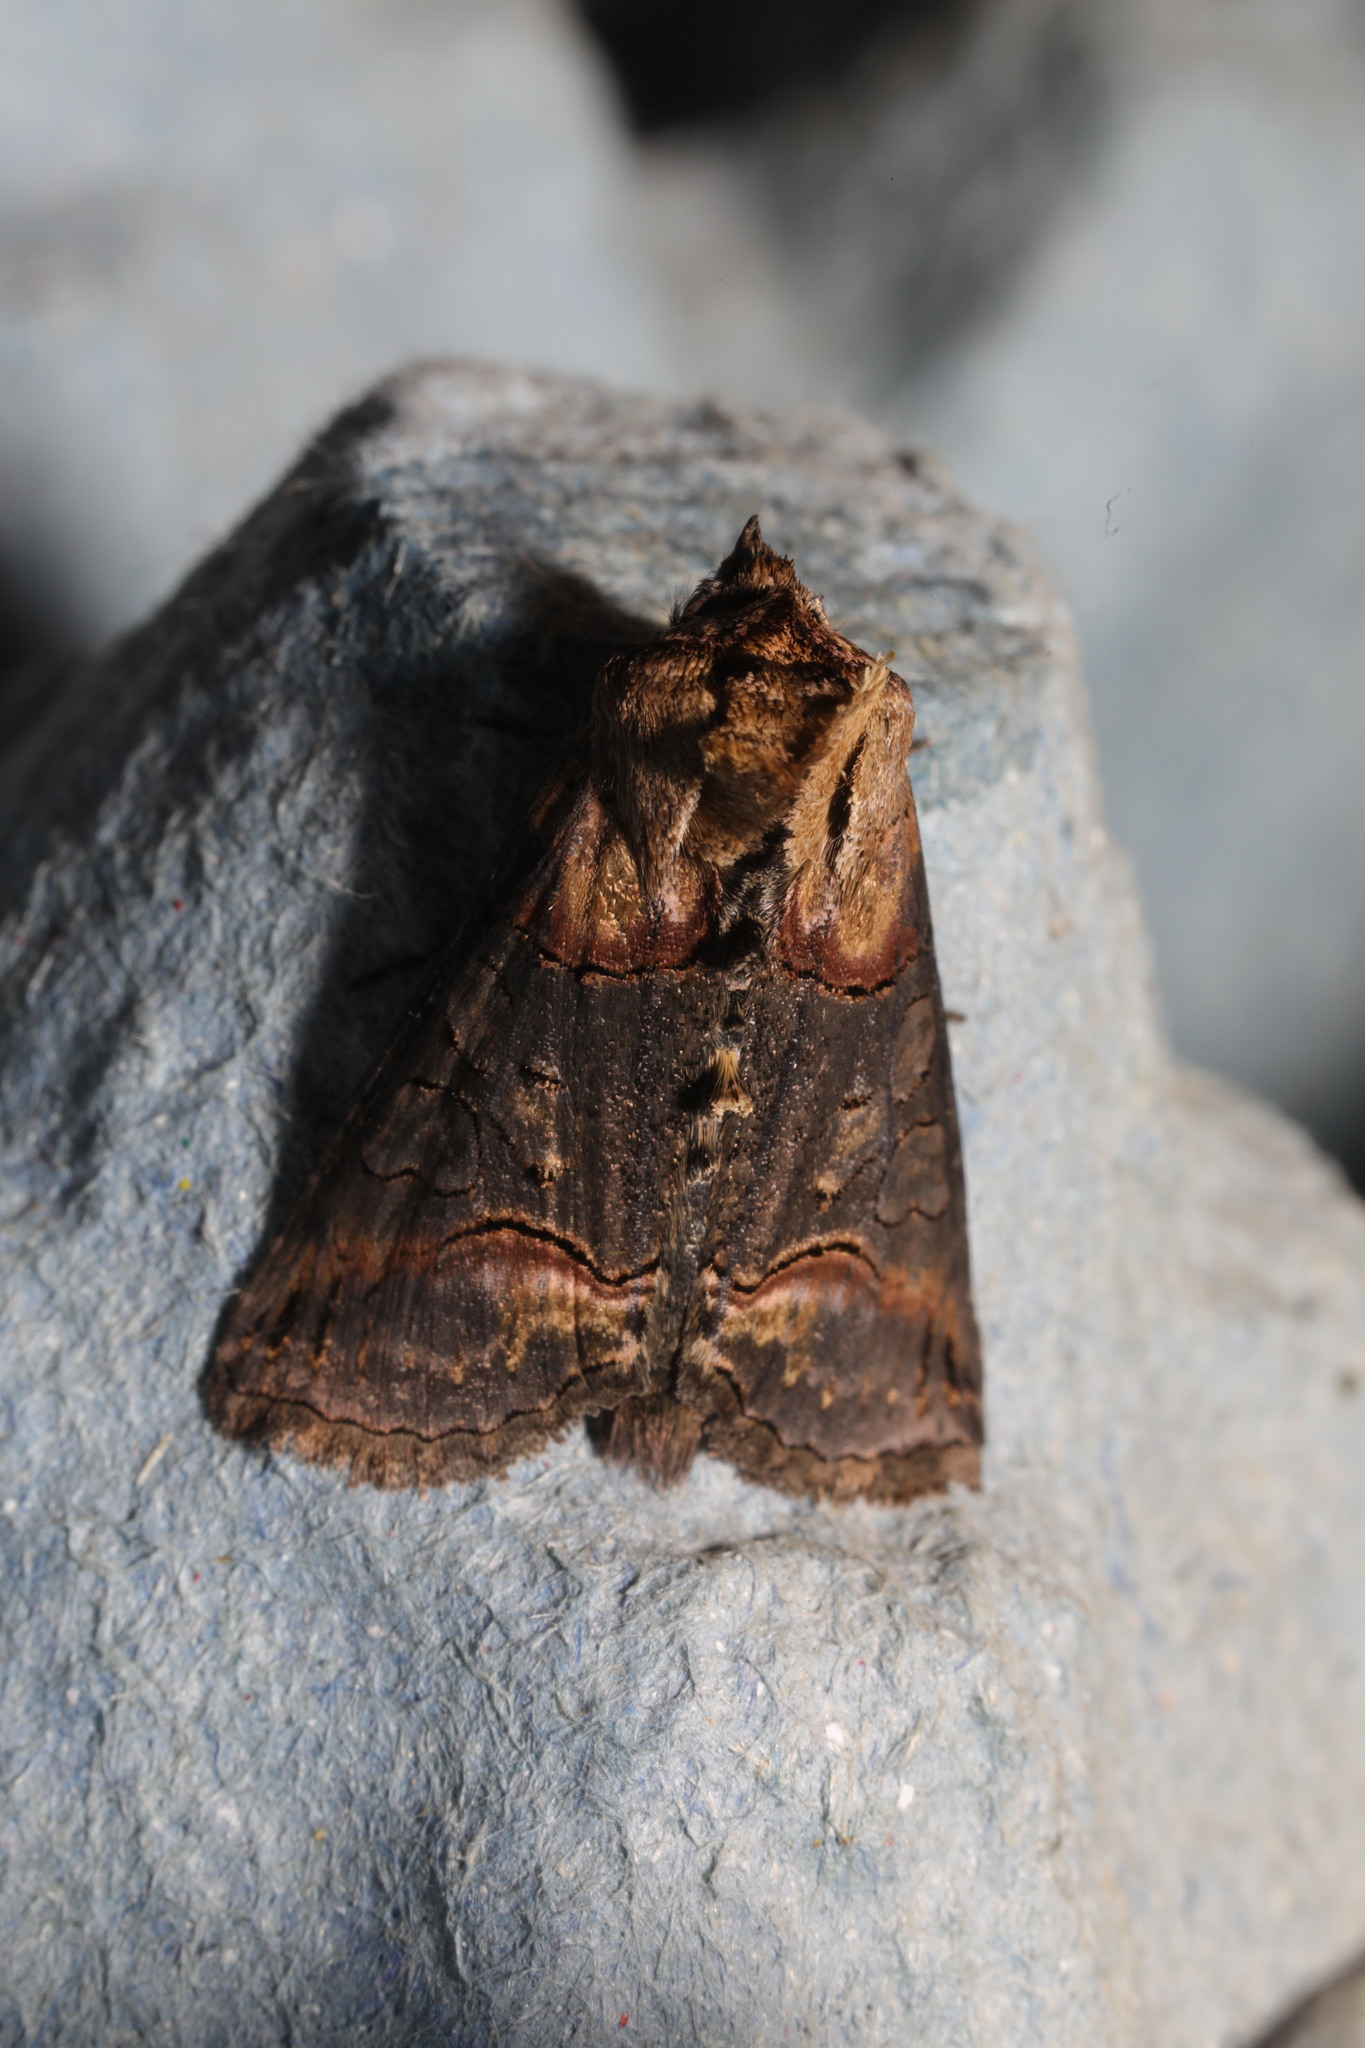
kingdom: Animalia
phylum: Arthropoda
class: Insecta
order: Lepidoptera
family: Noctuidae
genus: Abrostola
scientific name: Abrostola triplasia
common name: Dark spectacle
